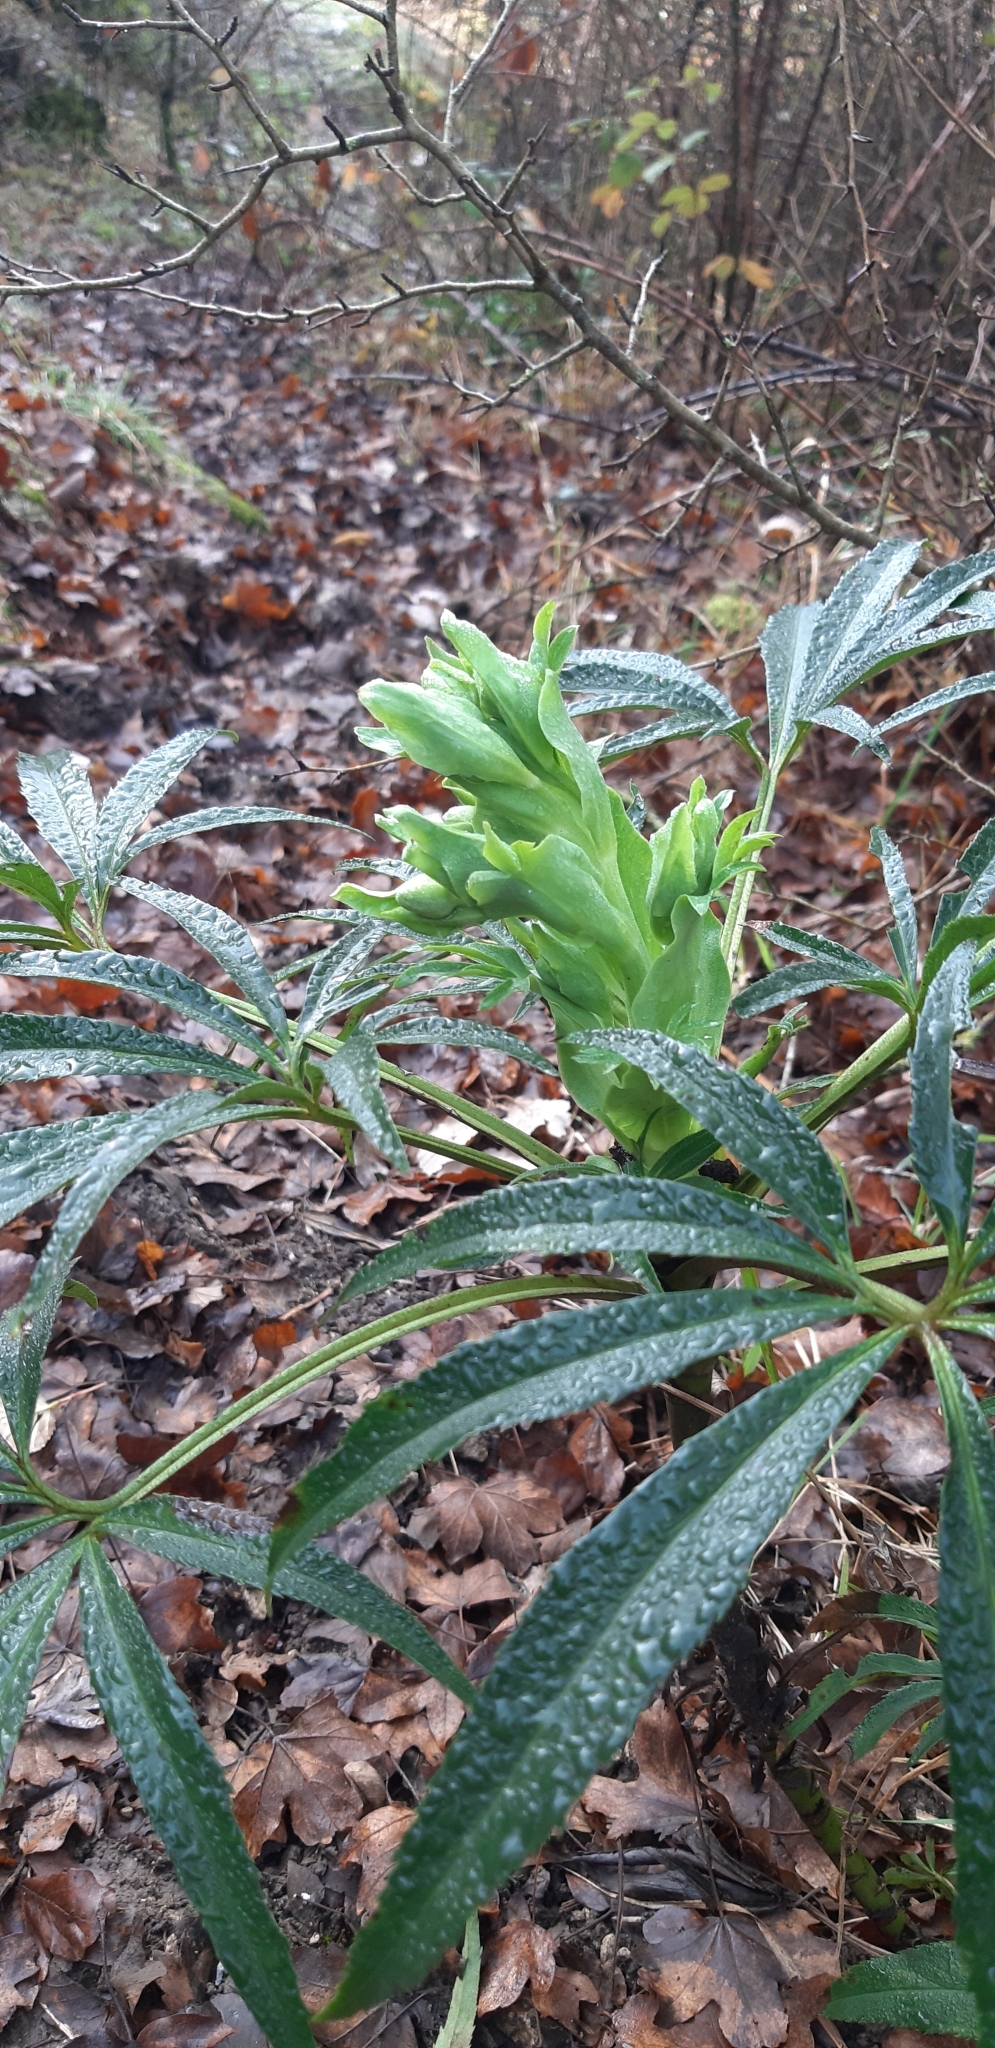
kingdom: Plantae
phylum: Tracheophyta
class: Magnoliopsida
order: Ranunculales
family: Ranunculaceae
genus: Helleborus
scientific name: Helleborus foetidus
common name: Stinking hellebore
